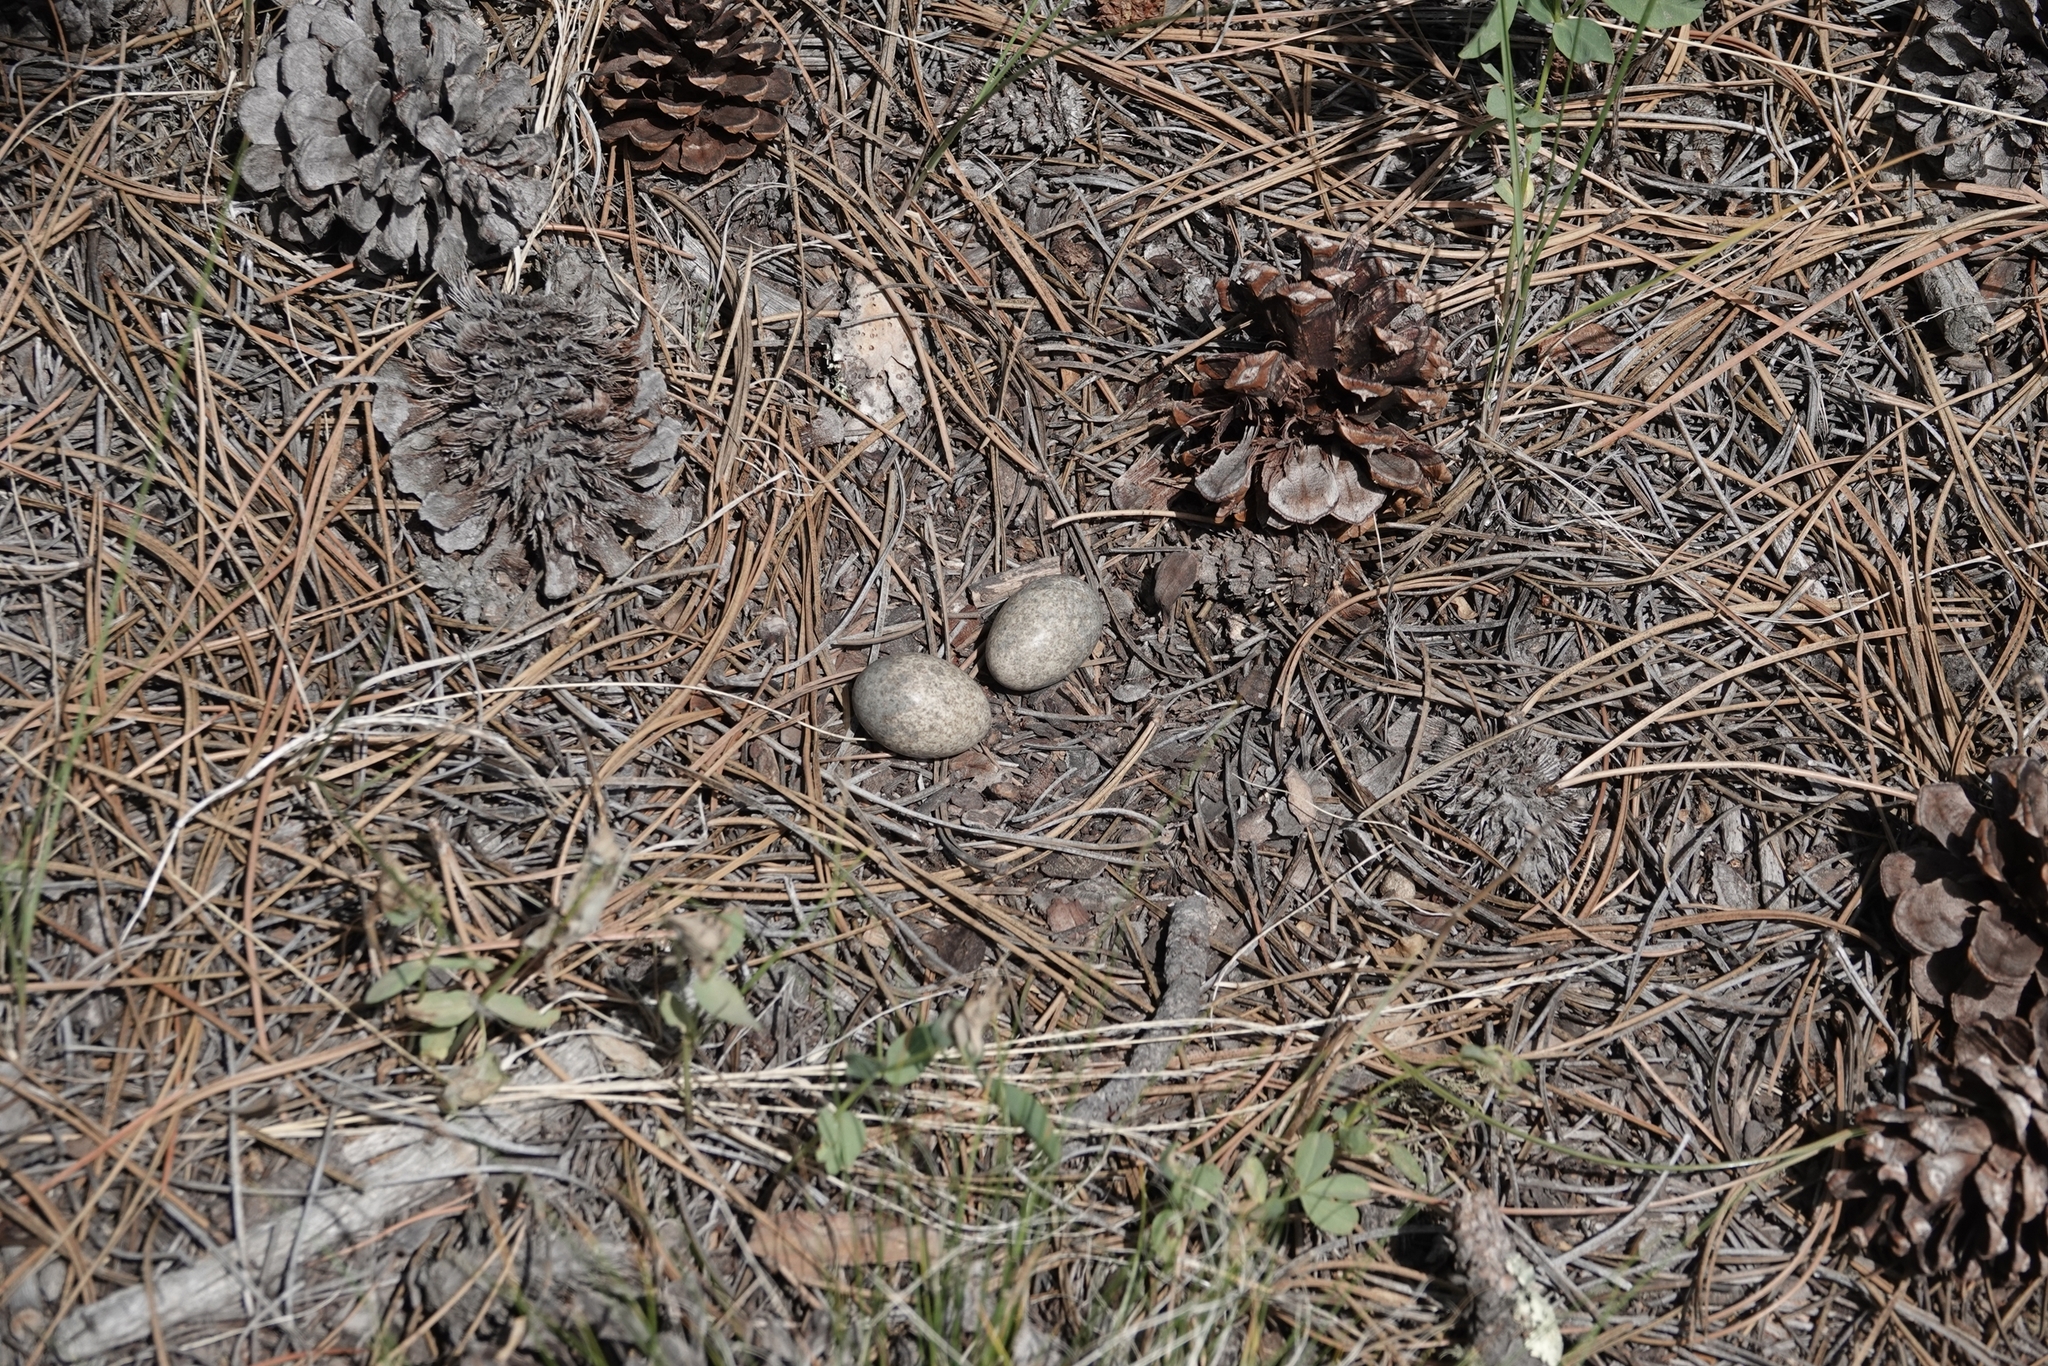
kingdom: Animalia
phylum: Chordata
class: Aves
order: Caprimulgiformes
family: Caprimulgidae
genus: Chordeiles
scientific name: Chordeiles minor
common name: Common nighthawk
